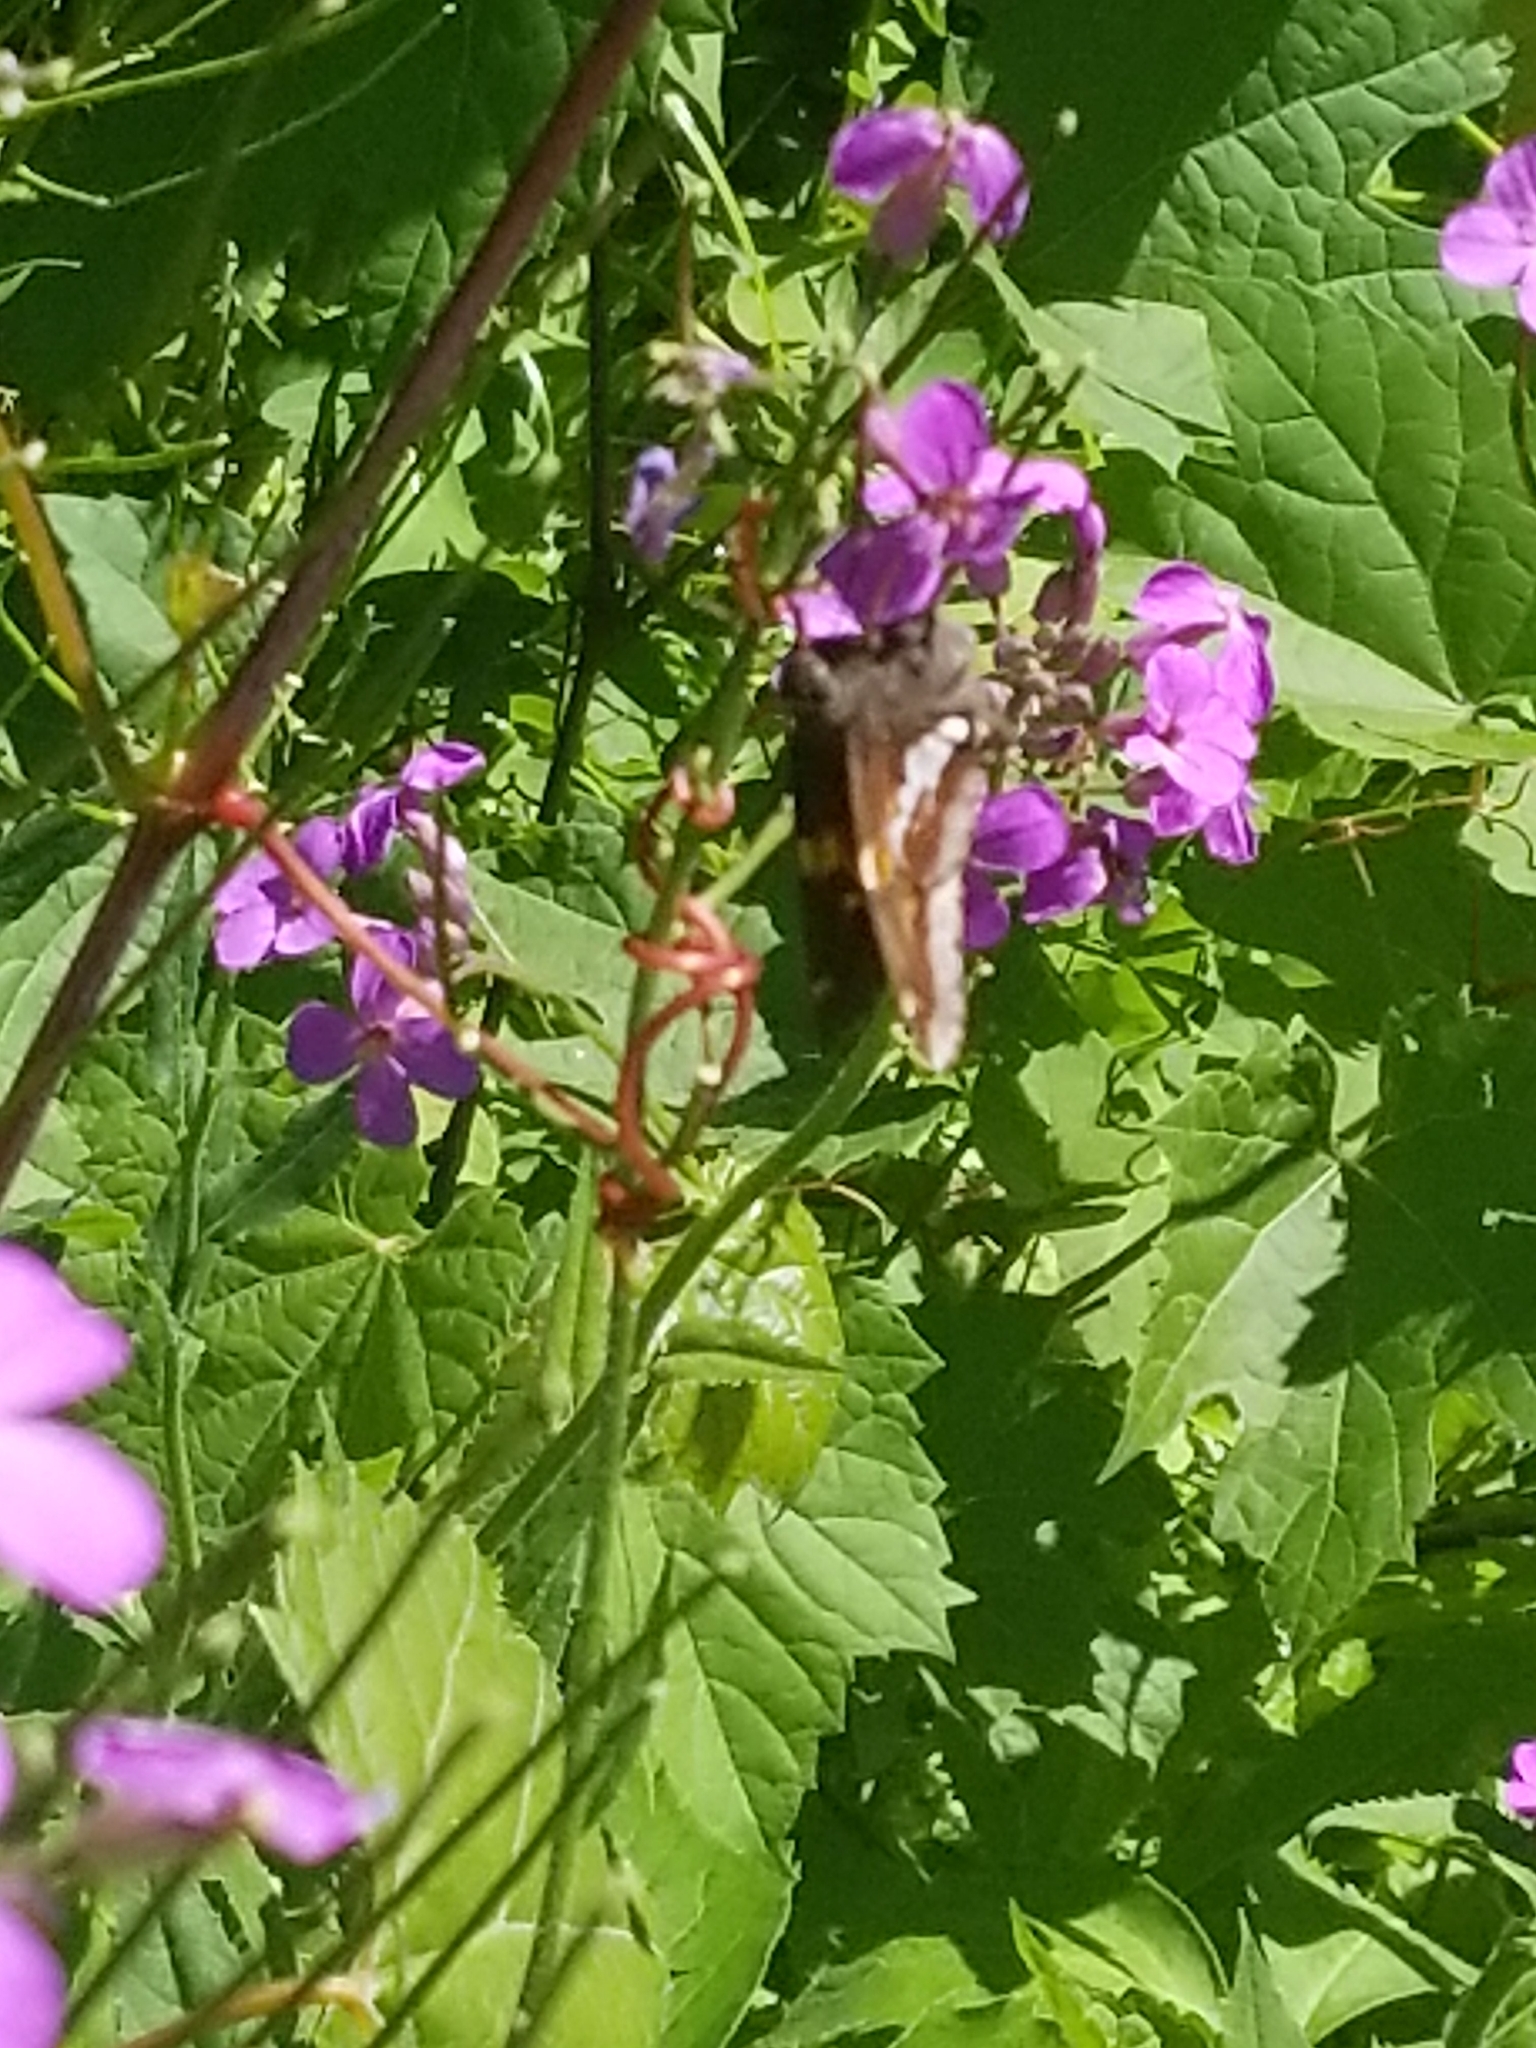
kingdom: Animalia
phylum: Arthropoda
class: Insecta
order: Lepidoptera
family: Hesperiidae
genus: Epargyreus
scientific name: Epargyreus clarus
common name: Silver-spotted skipper
